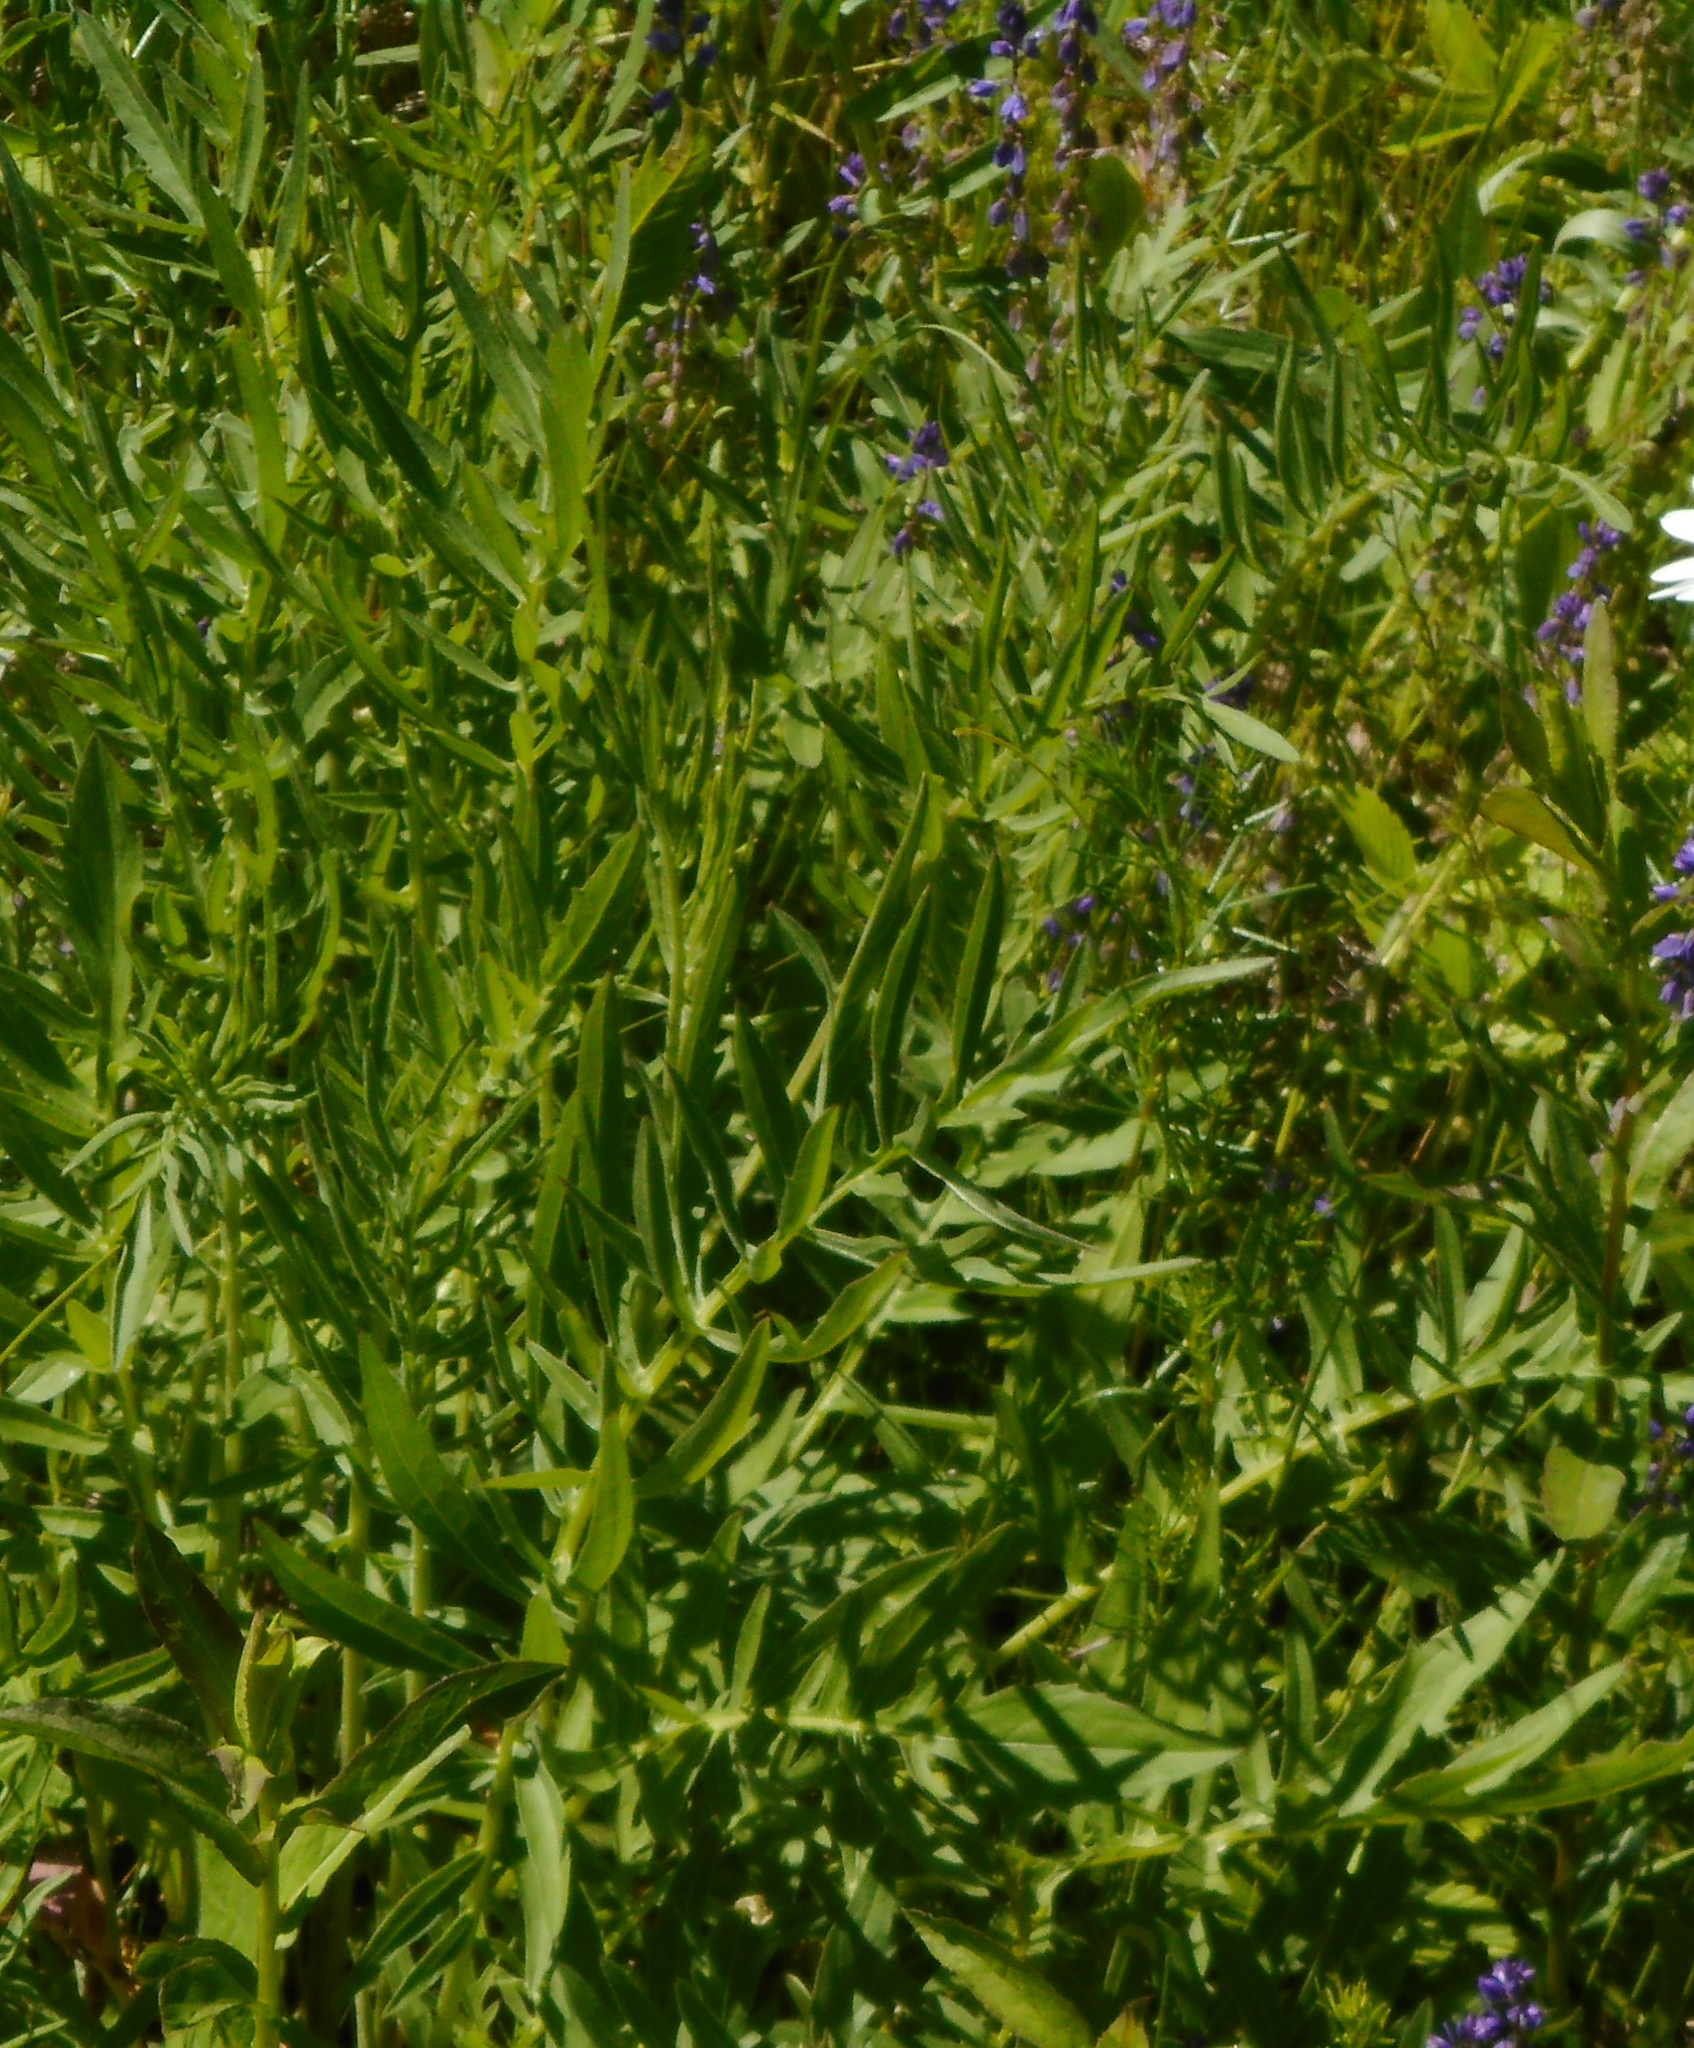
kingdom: Plantae
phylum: Tracheophyta
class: Magnoliopsida
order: Asterales
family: Asteraceae
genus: Centaurea
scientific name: Centaurea scabiosa
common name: Greater knapweed
